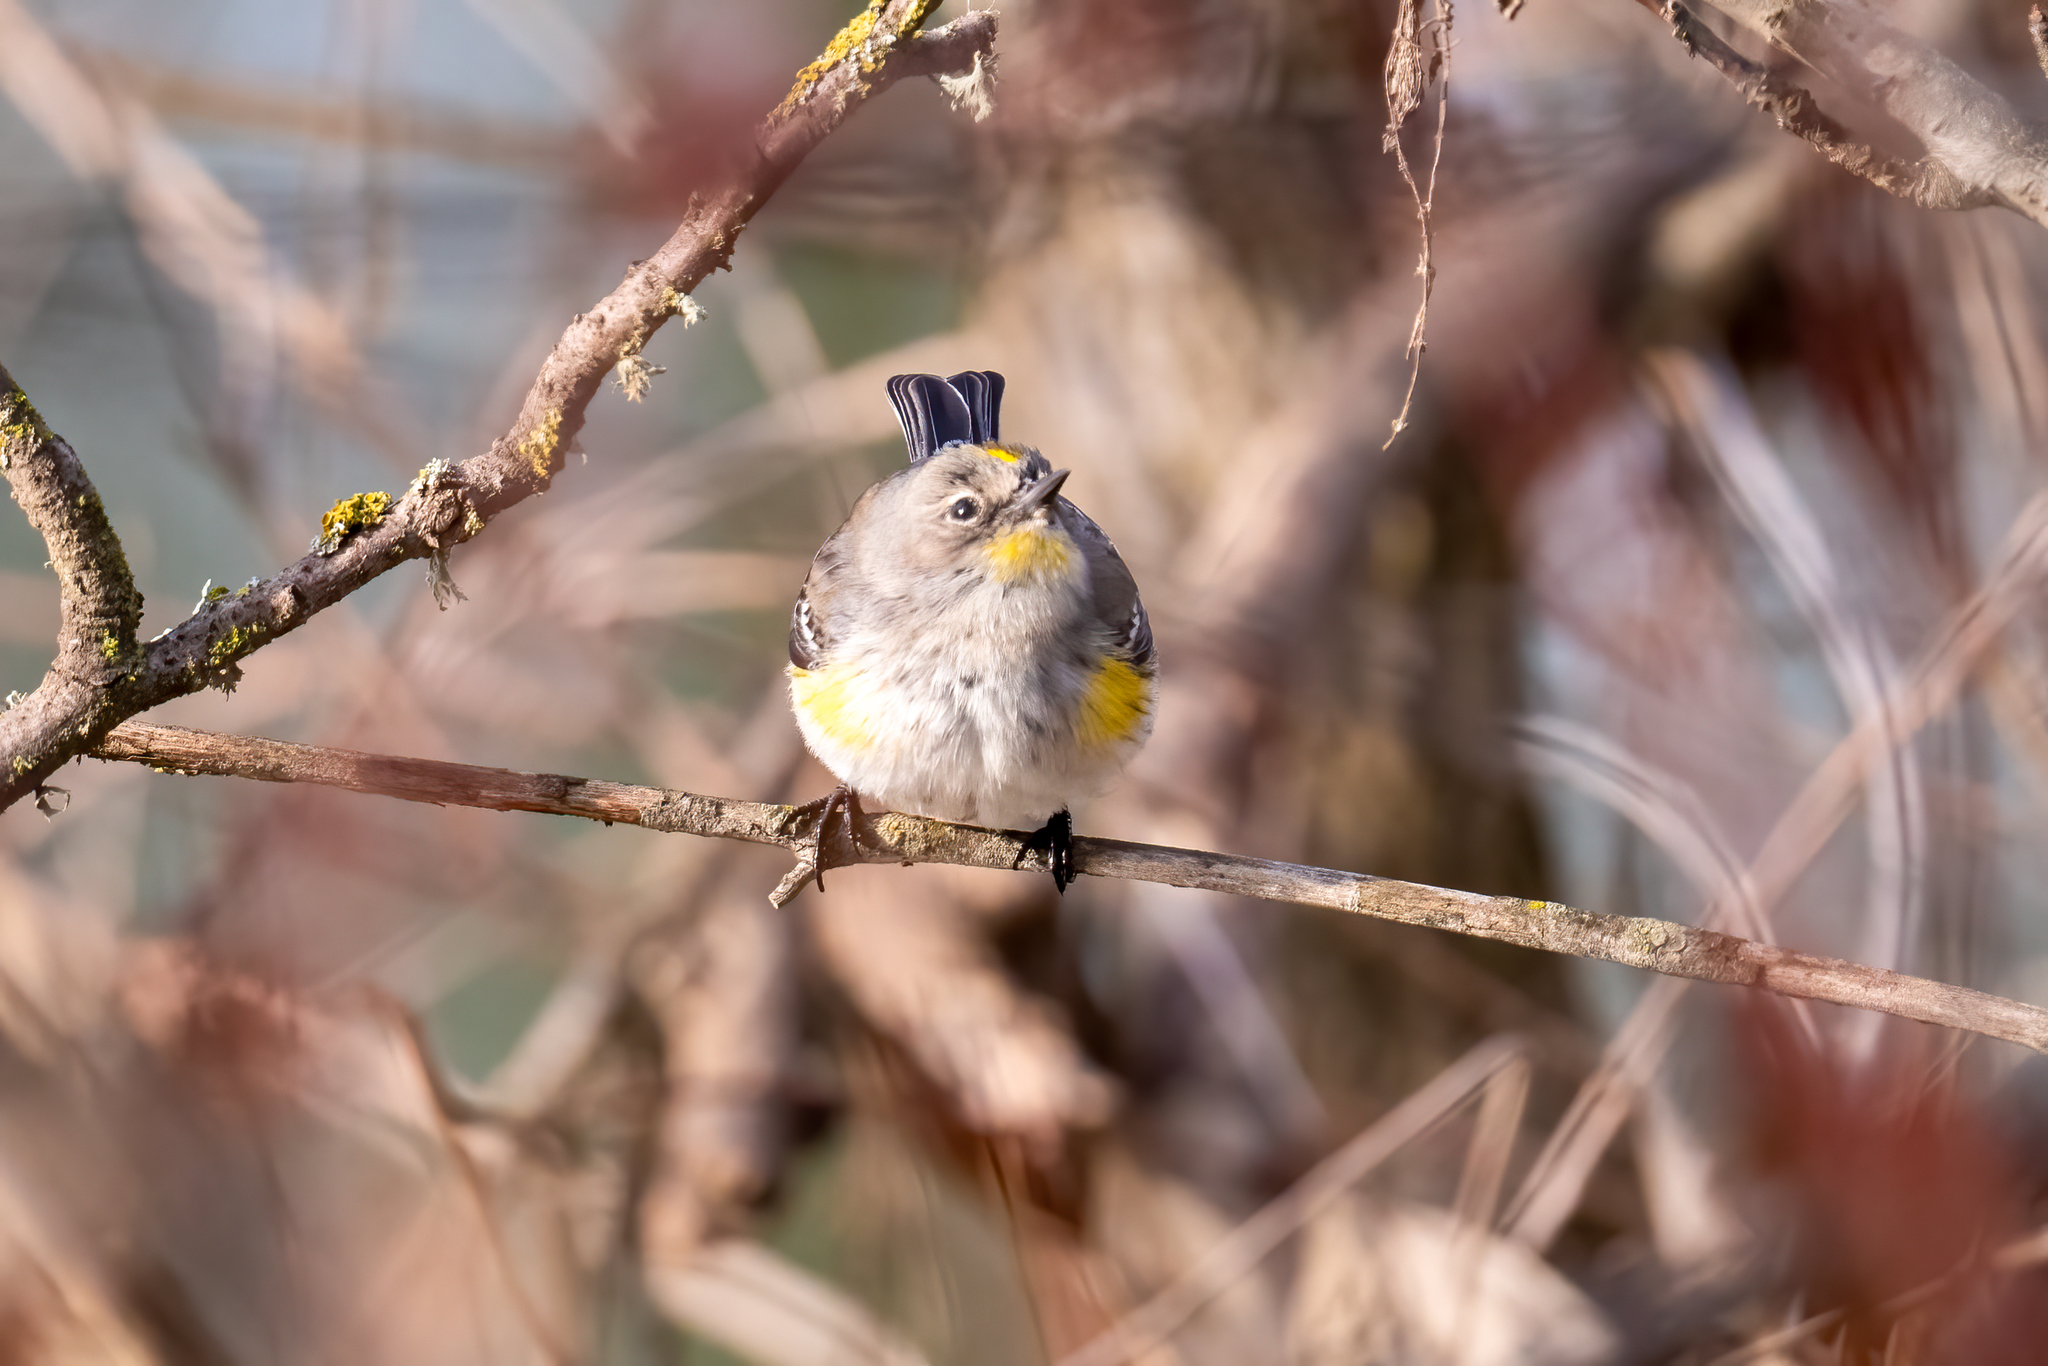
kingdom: Animalia
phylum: Chordata
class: Aves
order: Passeriformes
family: Parulidae
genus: Setophaga
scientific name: Setophaga coronata
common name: Myrtle warbler
